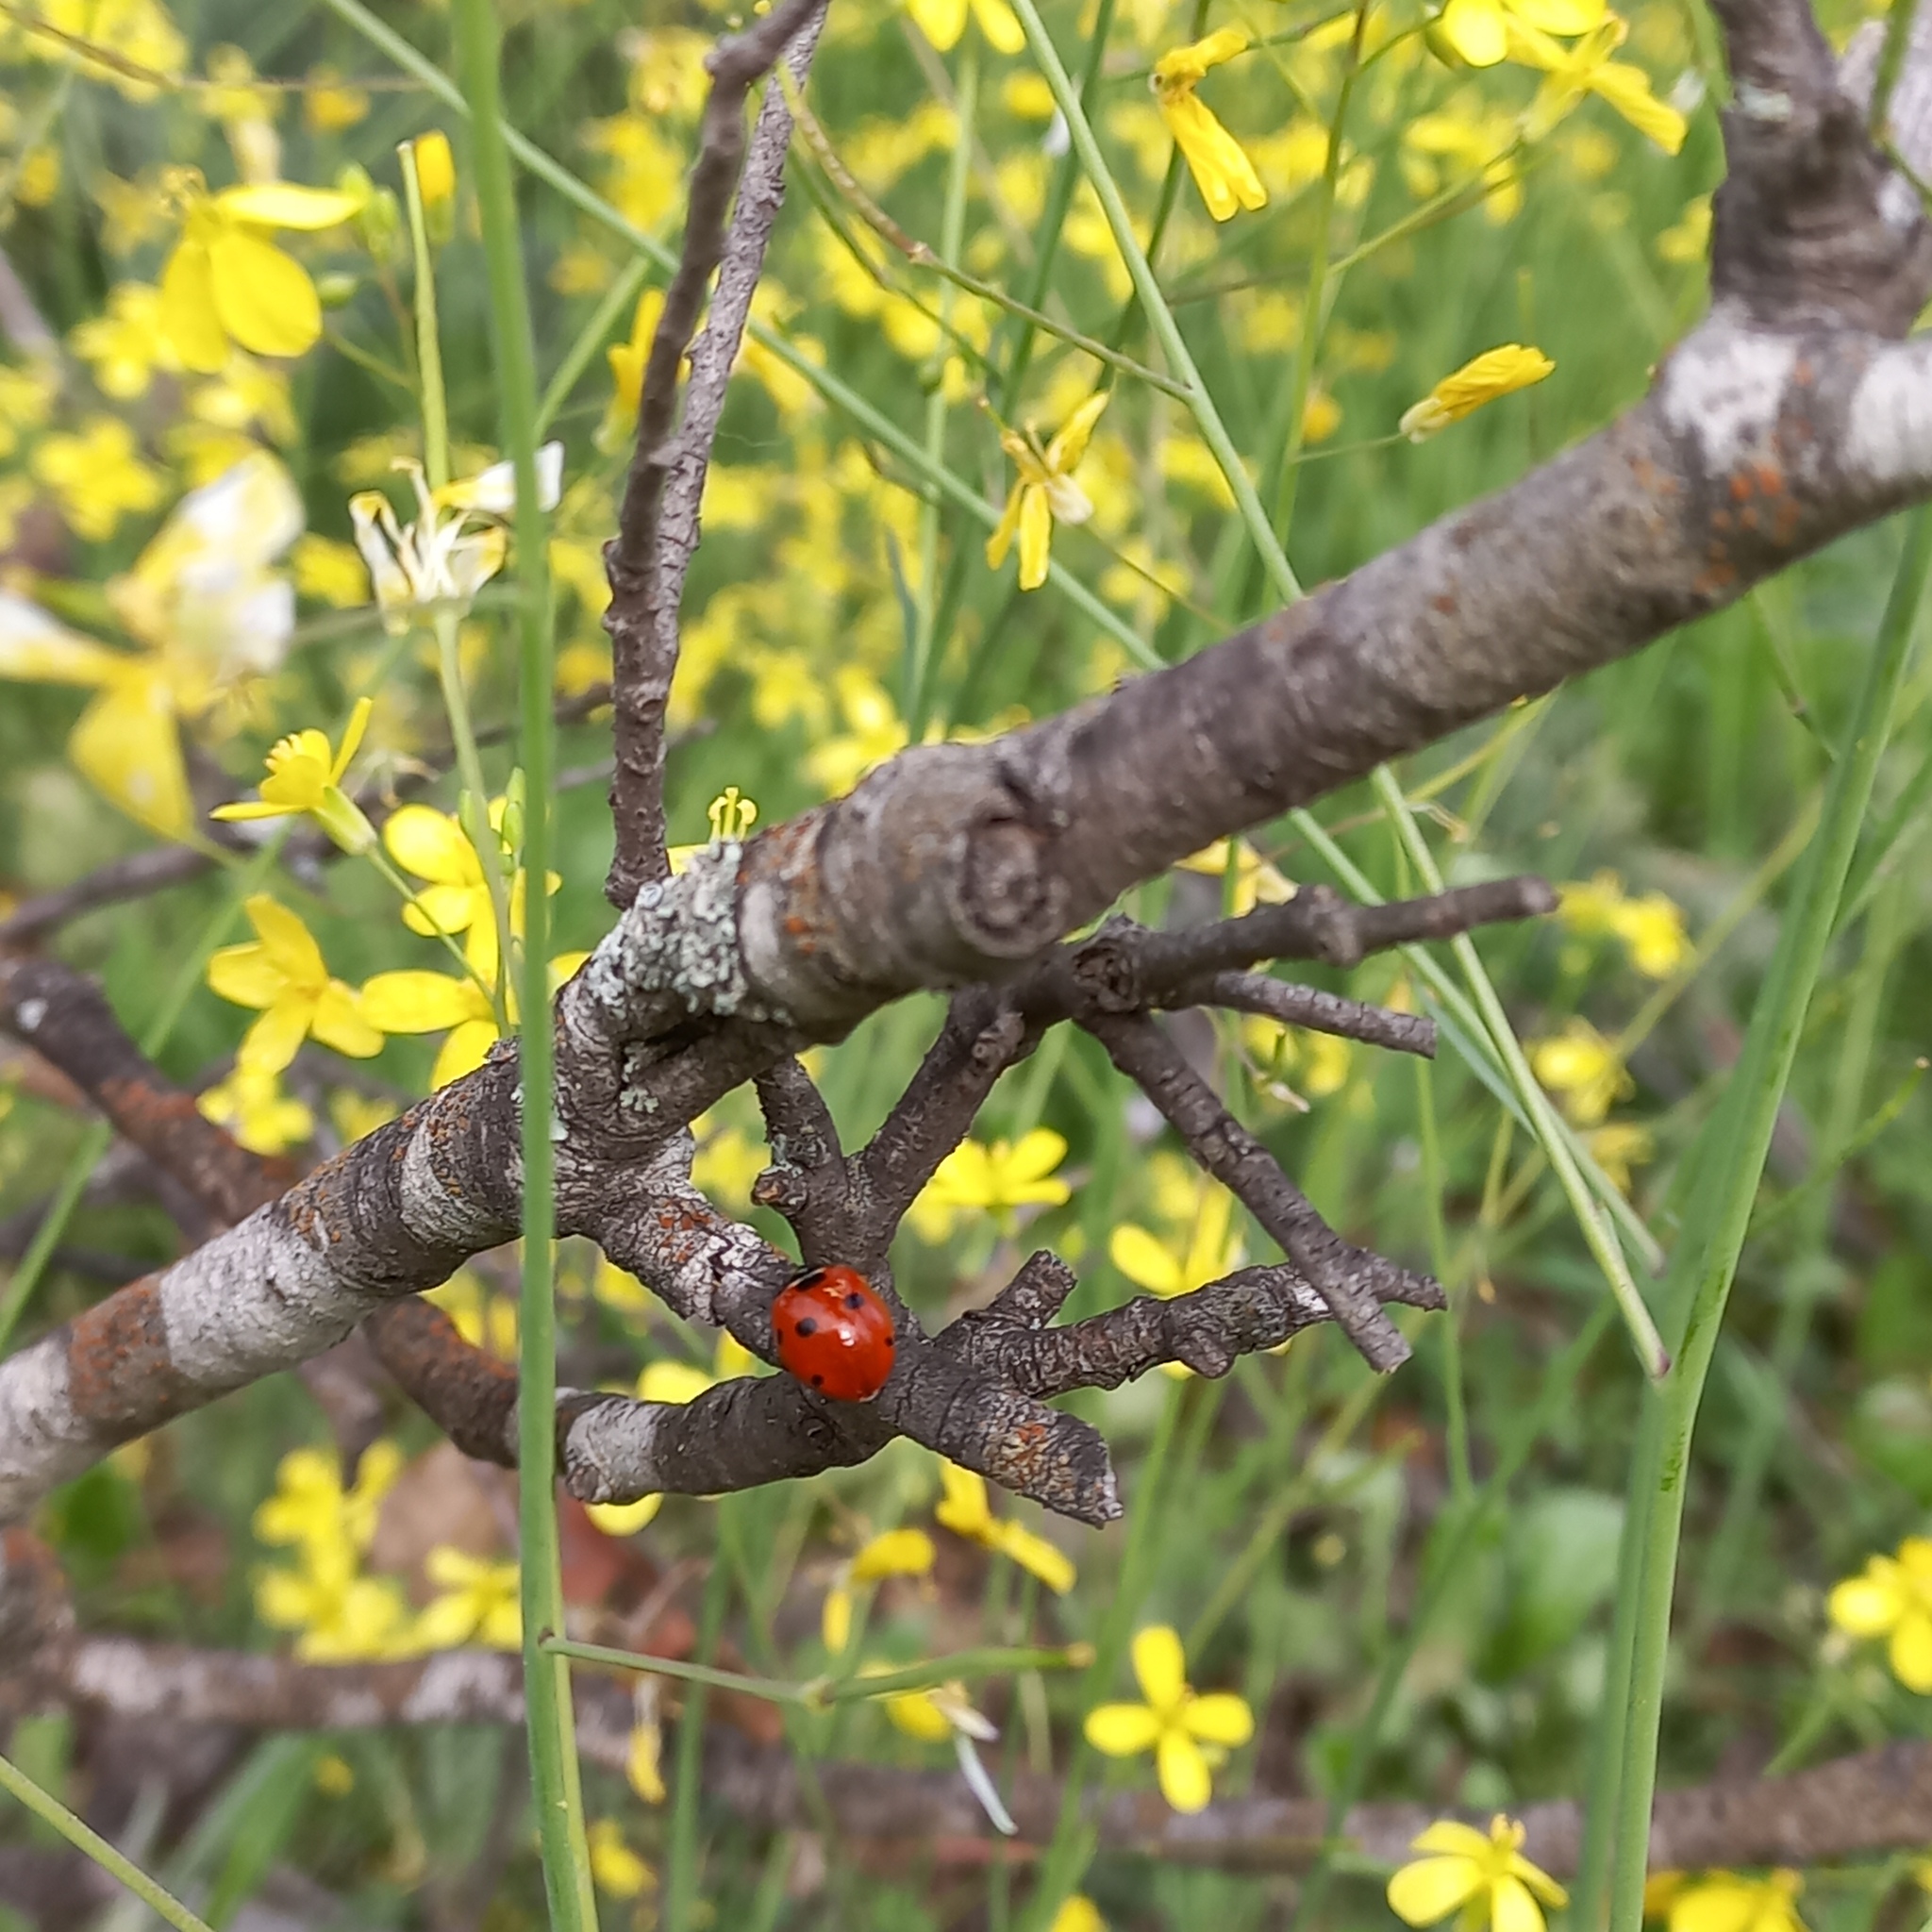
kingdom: Animalia
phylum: Arthropoda
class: Insecta
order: Coleoptera
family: Coccinellidae
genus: Coccinella
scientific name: Coccinella septempunctata
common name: Sevenspotted lady beetle
